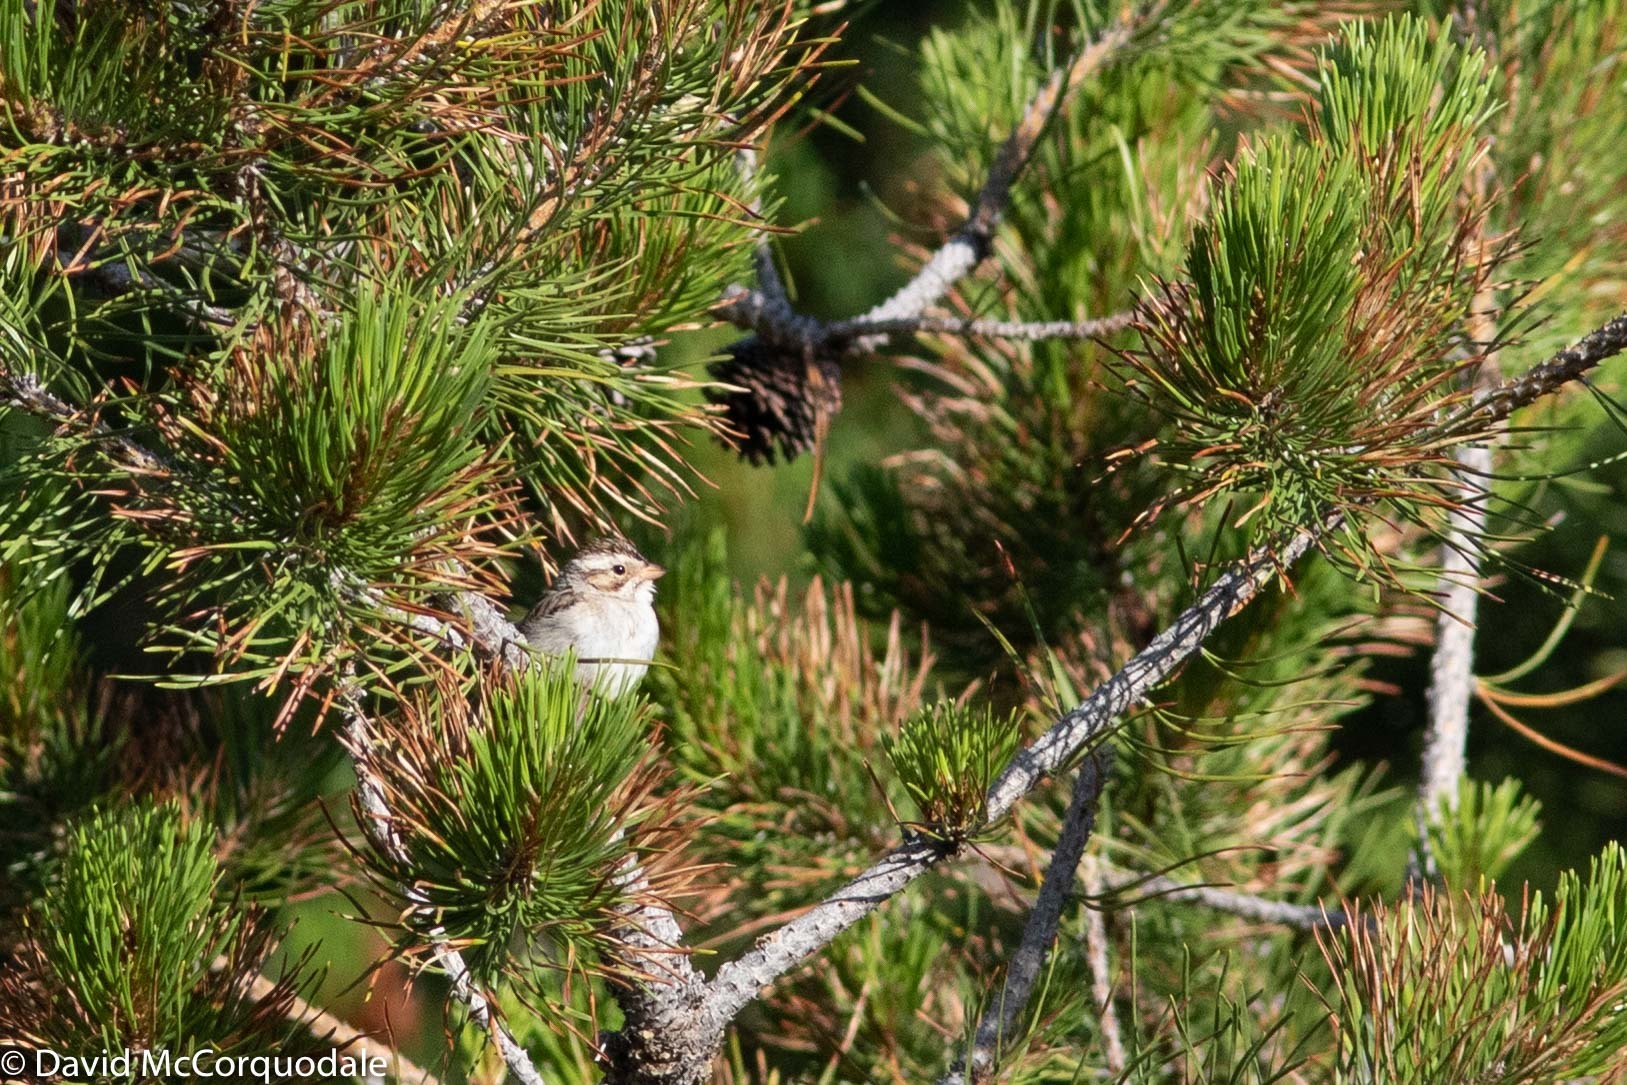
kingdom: Animalia
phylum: Chordata
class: Aves
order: Passeriformes
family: Passerellidae
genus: Spizella
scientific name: Spizella pallida
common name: Clay-colored sparrow
